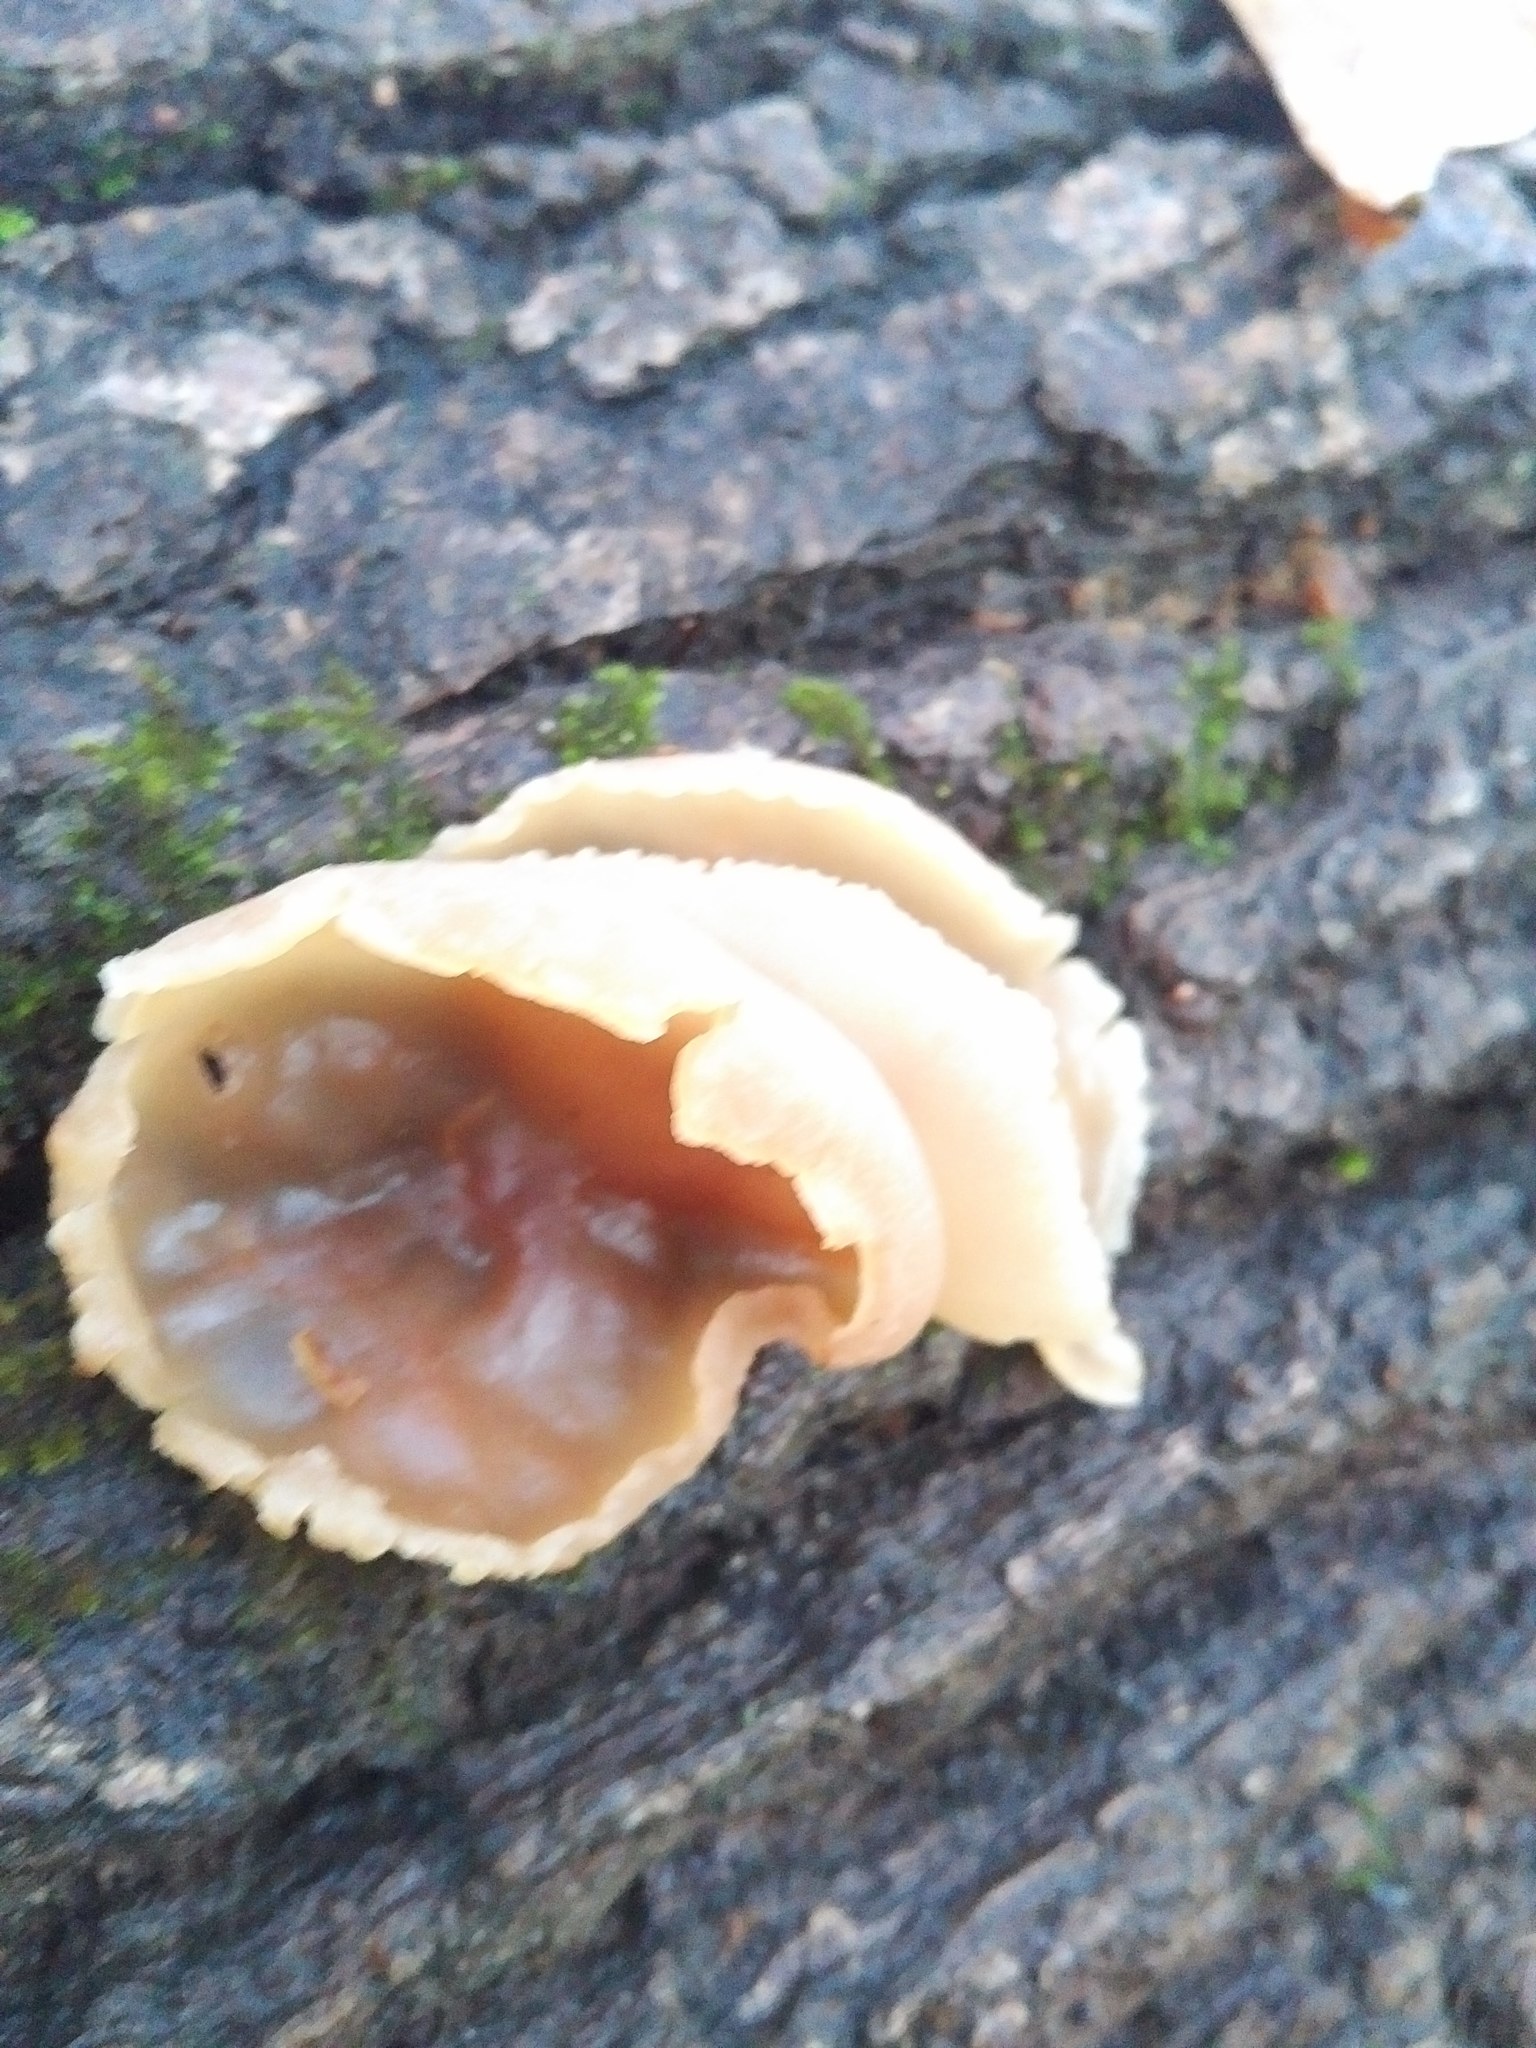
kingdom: Fungi
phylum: Ascomycota
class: Pezizomycetes
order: Pezizales
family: Pezizaceae
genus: Peziza
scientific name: Peziza varia
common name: Layered cup
